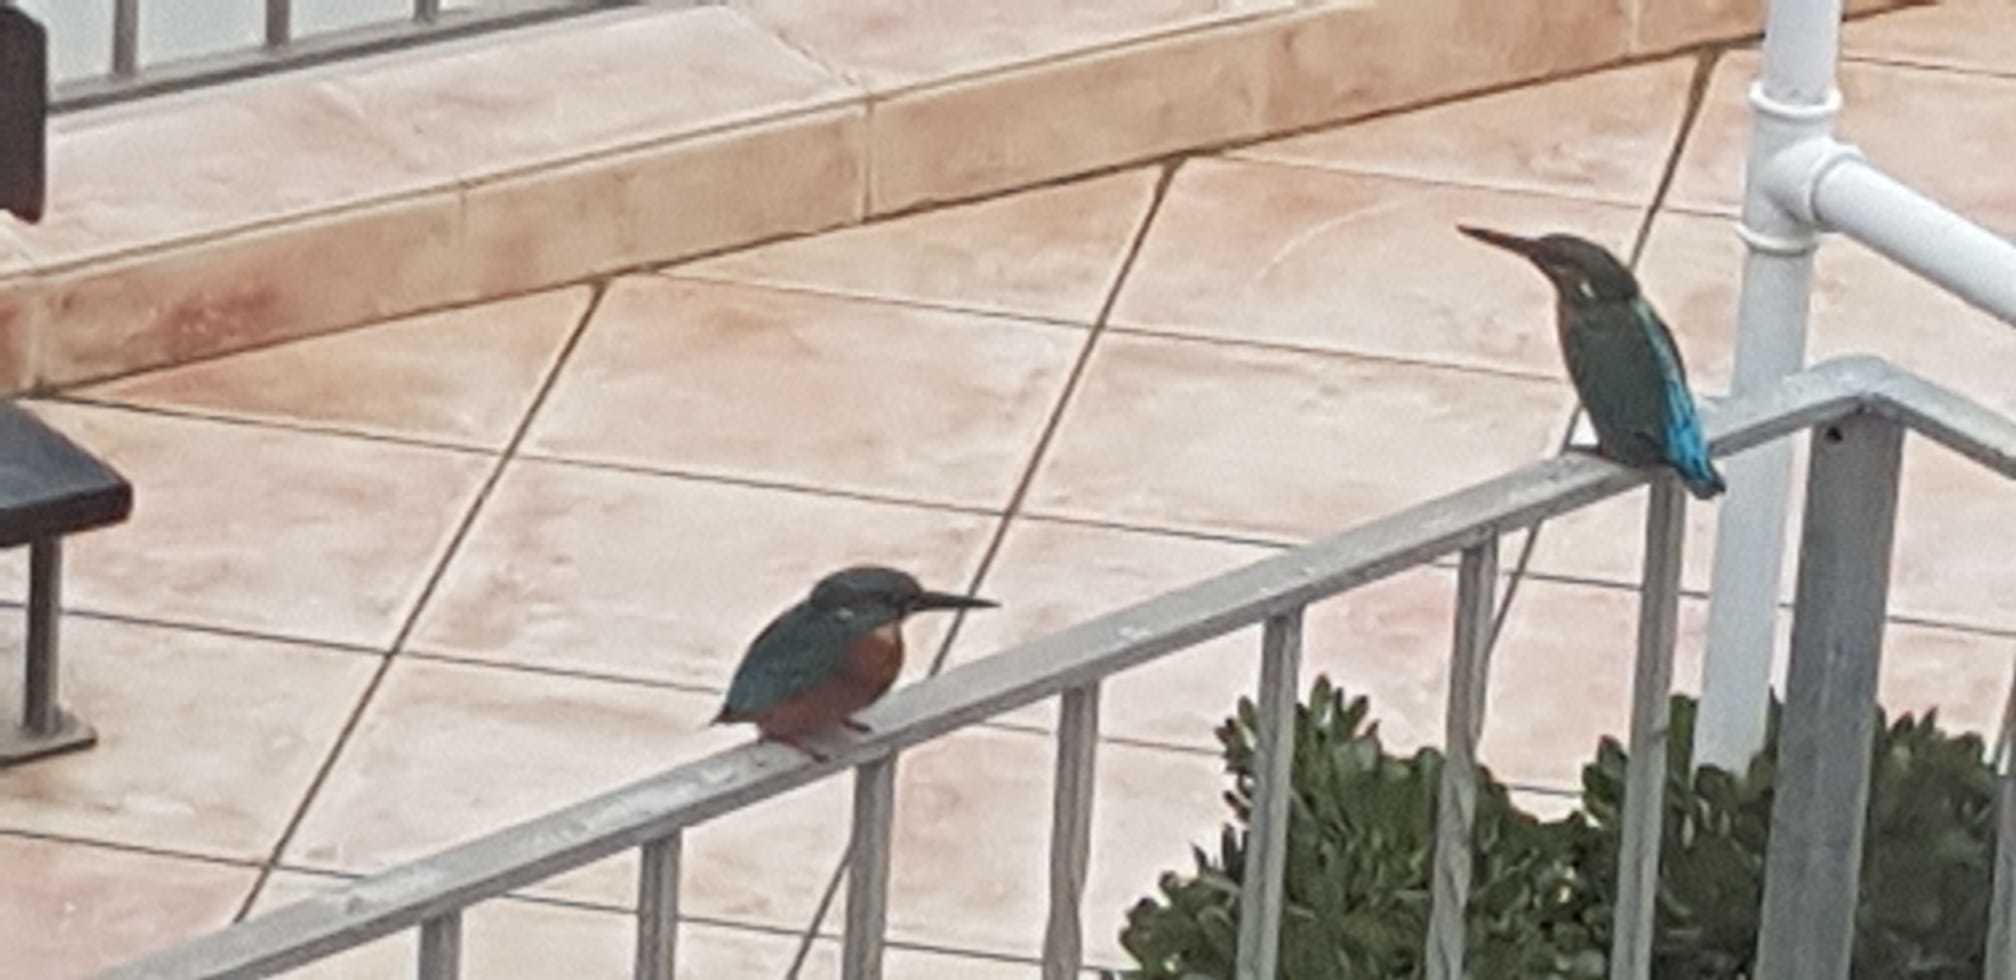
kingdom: Animalia
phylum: Chordata
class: Aves
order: Coraciiformes
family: Alcedinidae
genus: Alcedo
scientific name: Alcedo atthis
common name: Common kingfisher
